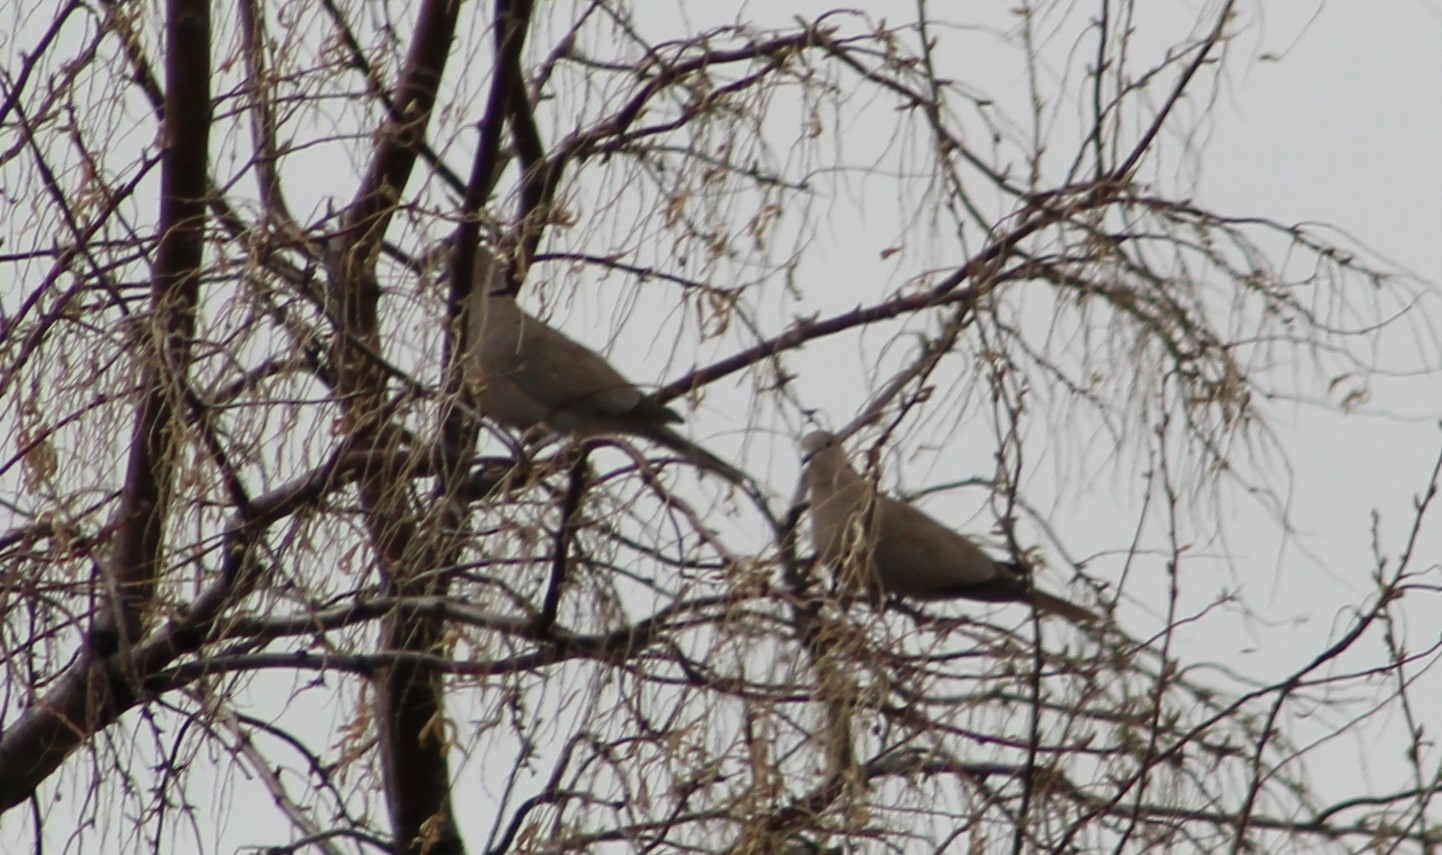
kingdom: Animalia
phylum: Chordata
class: Aves
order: Columbiformes
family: Columbidae
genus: Streptopelia
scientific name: Streptopelia decaocto
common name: Eurasian collared dove
